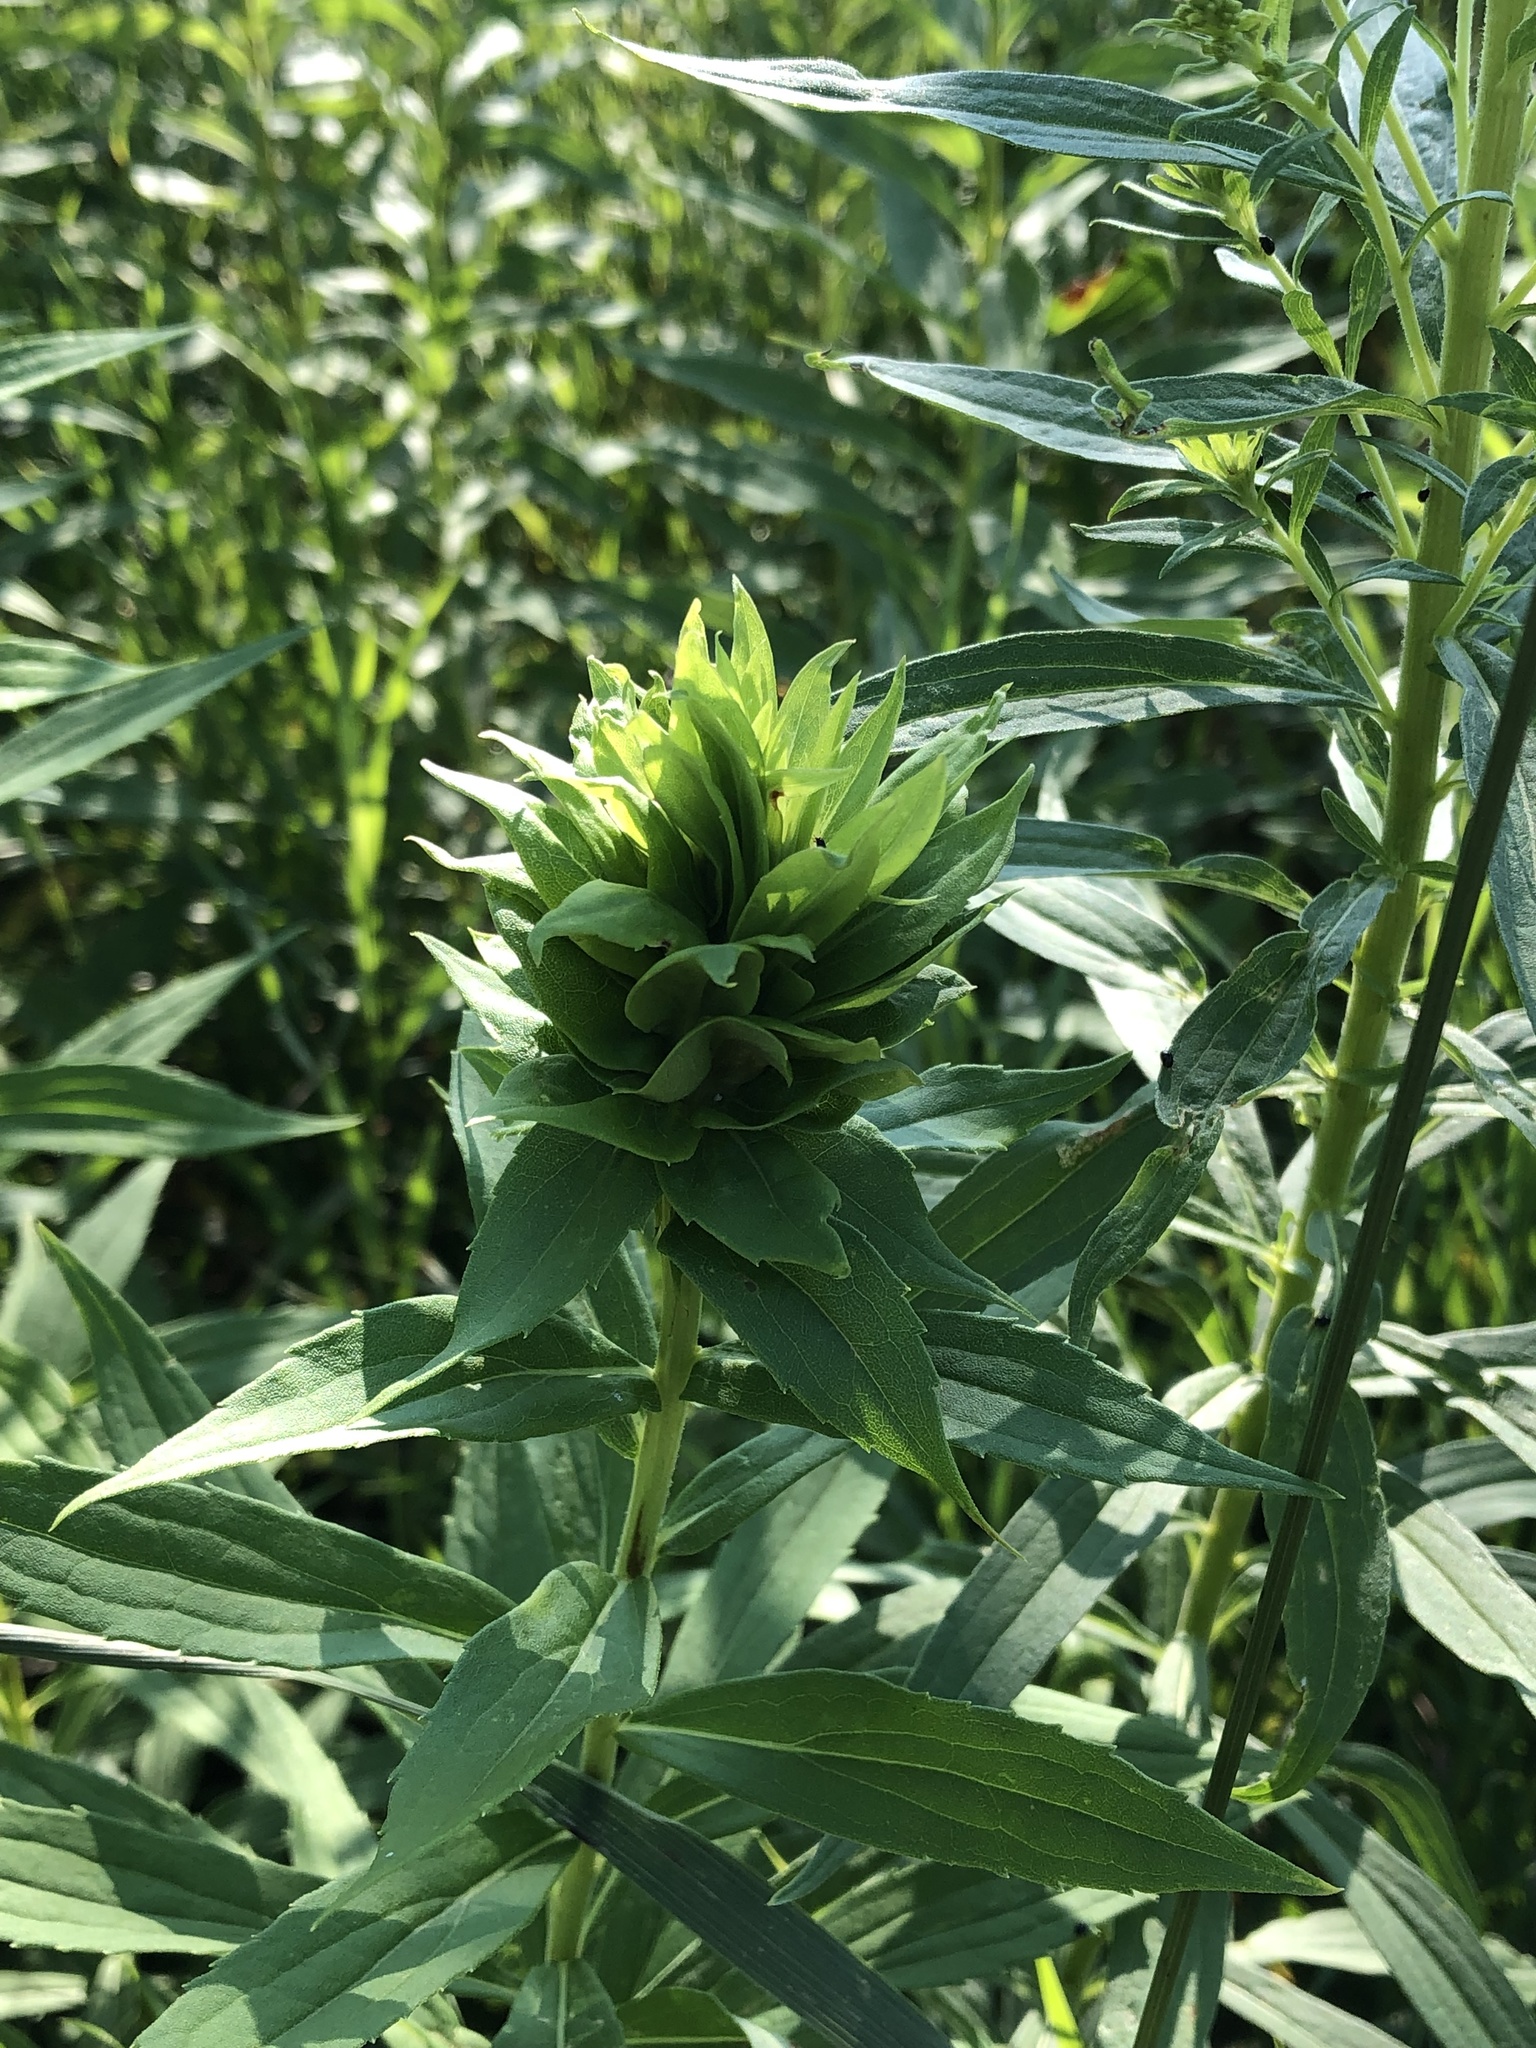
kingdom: Animalia
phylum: Arthropoda
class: Insecta
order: Diptera
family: Cecidomyiidae
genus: Rhopalomyia
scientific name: Rhopalomyia solidaginis
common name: Goldenrod bunch gall midge
